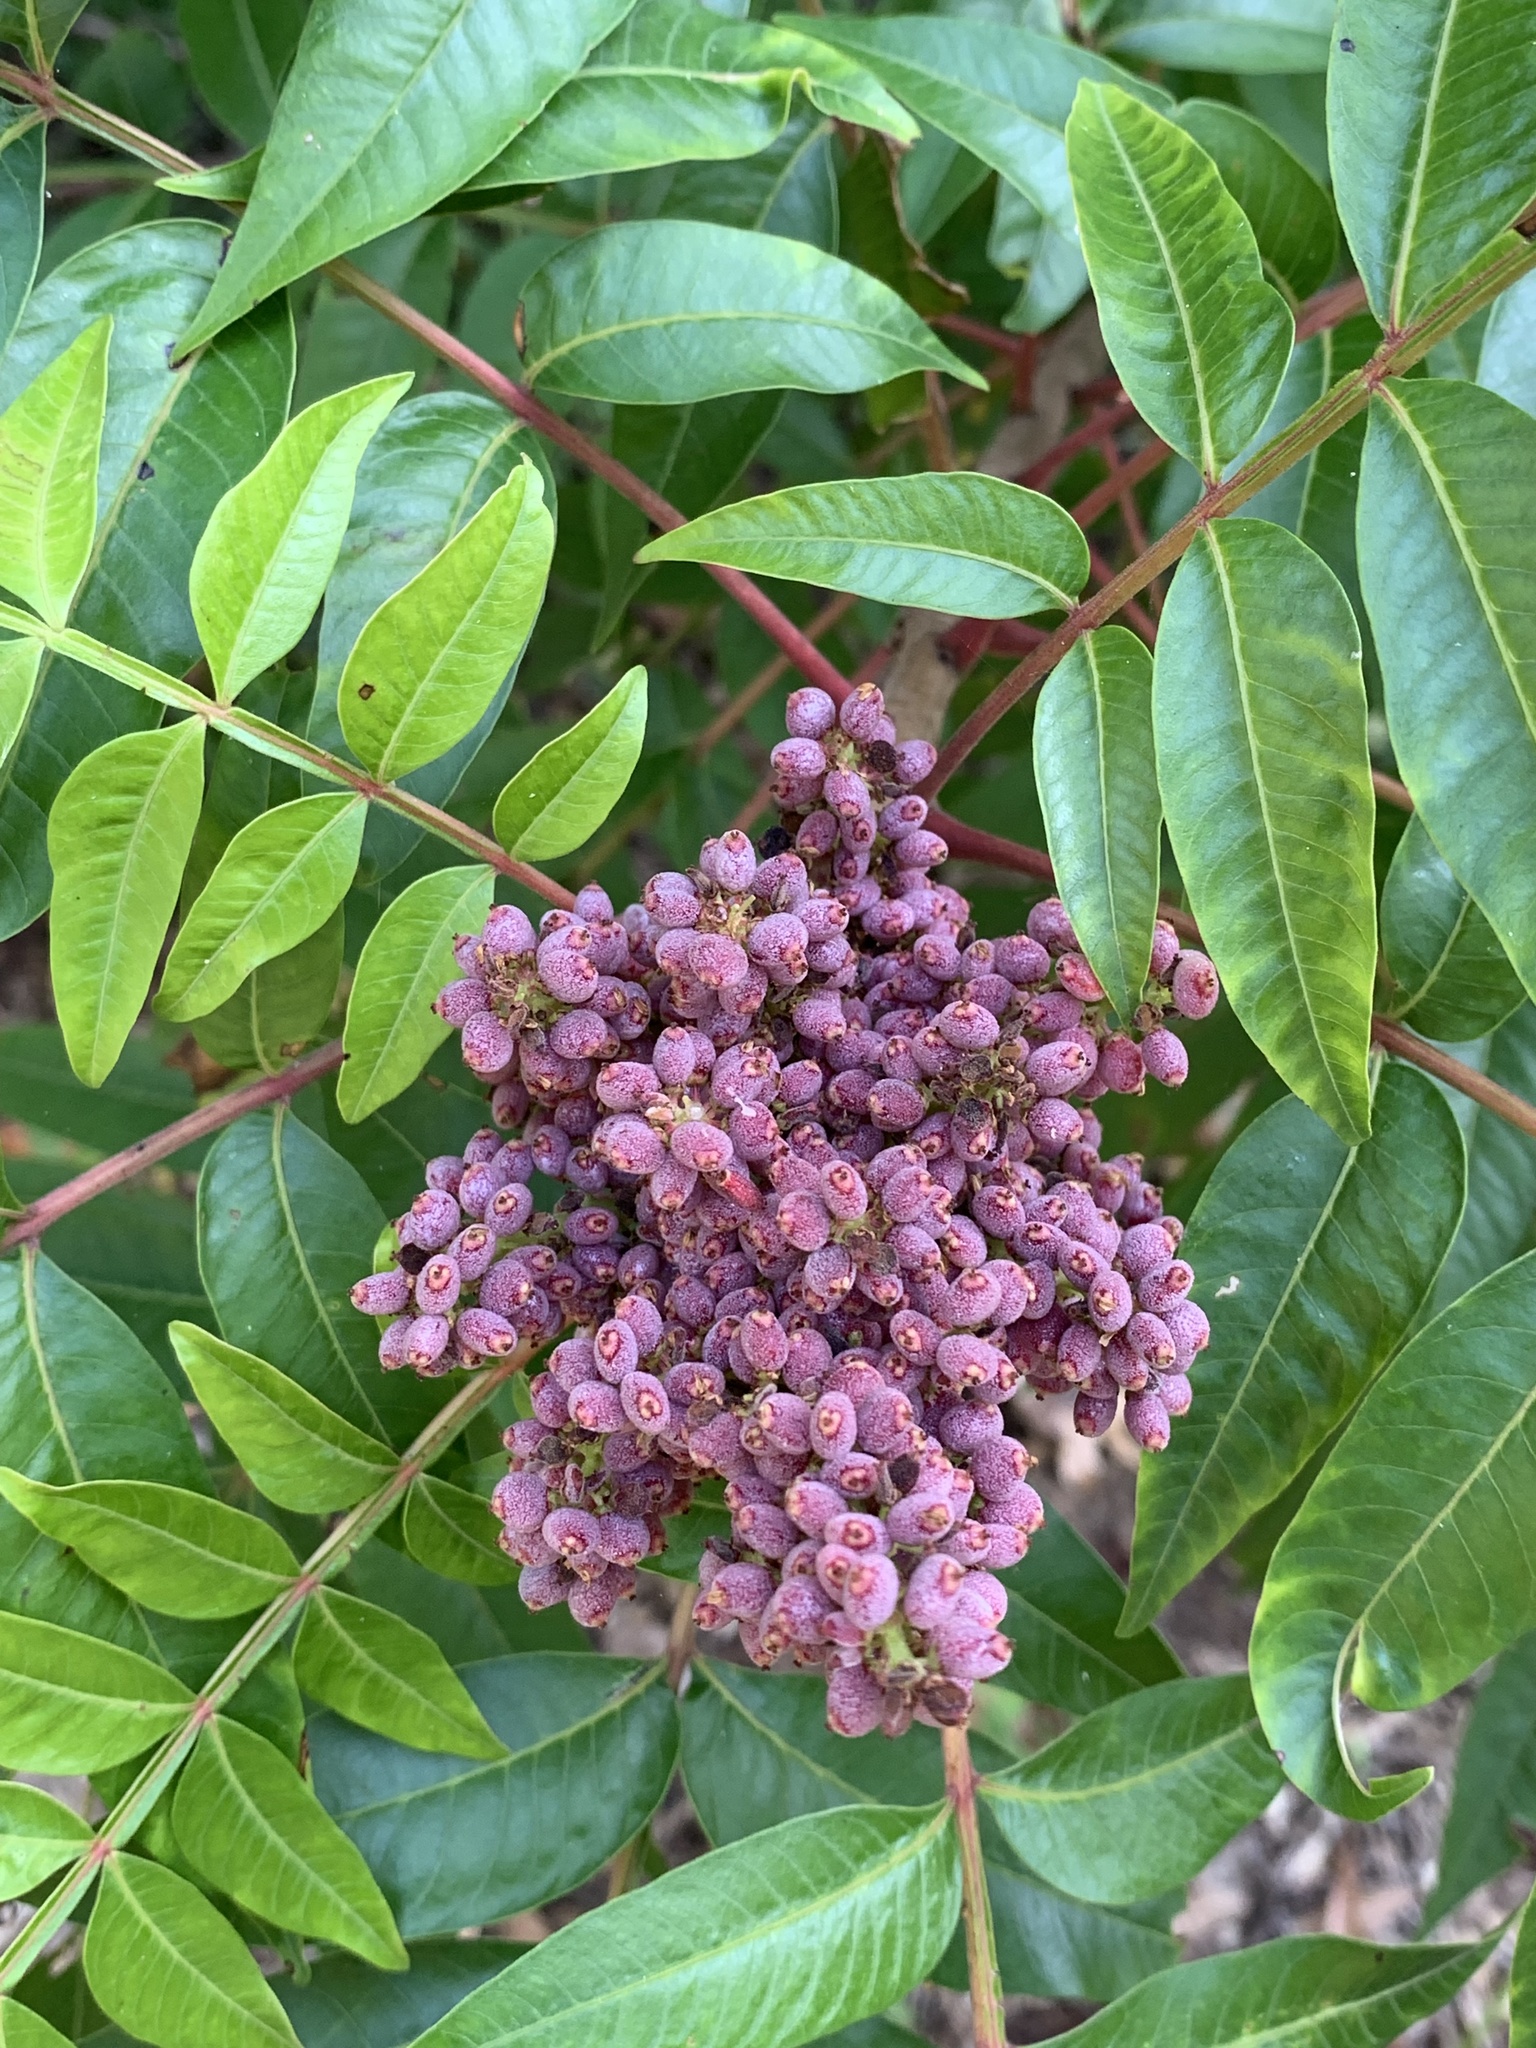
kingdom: Plantae
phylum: Tracheophyta
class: Magnoliopsida
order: Sapindales
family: Anacardiaceae
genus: Rhus
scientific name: Rhus copallina
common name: Shining sumac
